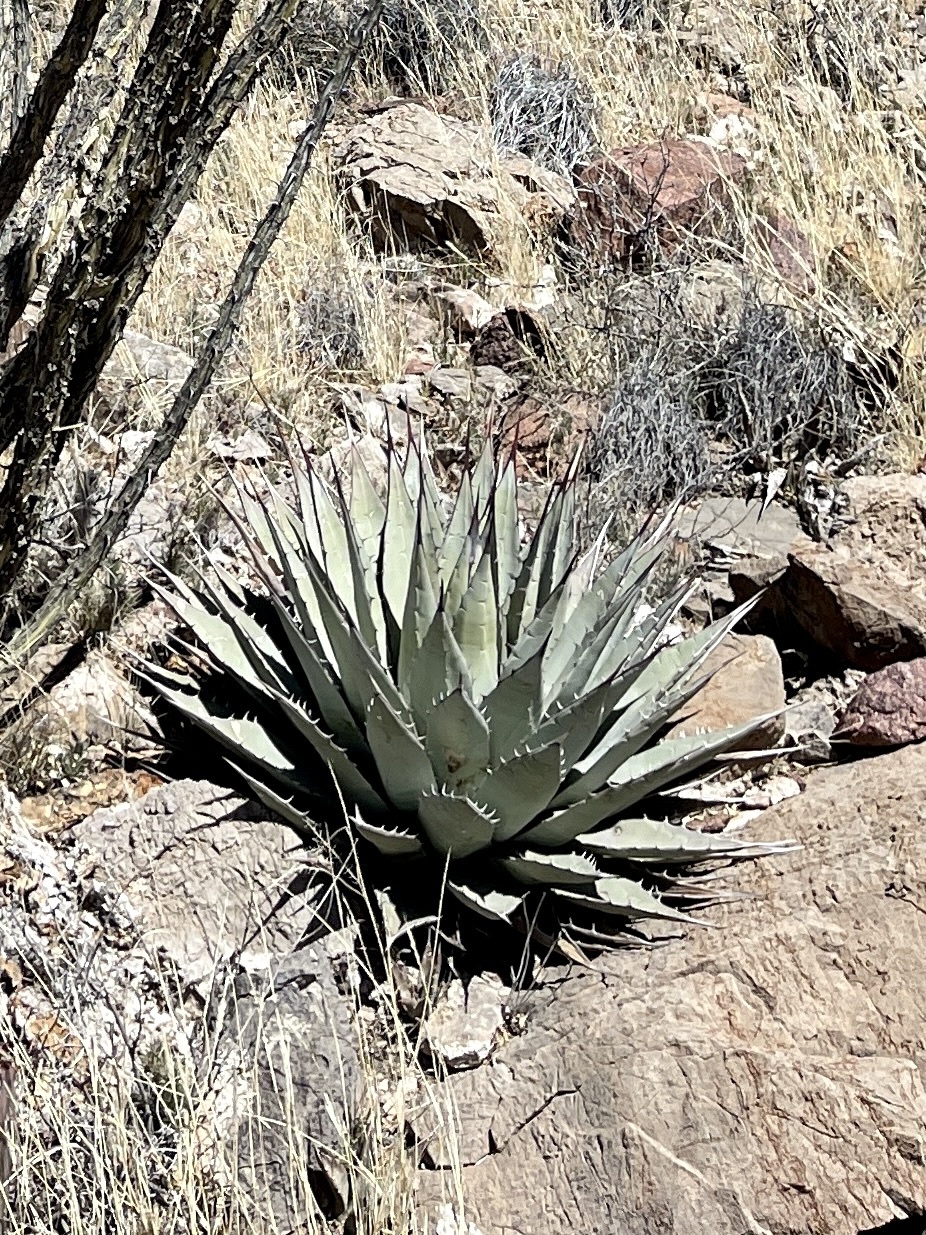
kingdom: Plantae
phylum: Tracheophyta
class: Liliopsida
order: Asparagales
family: Asparagaceae
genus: Agave
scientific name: Agave parryi
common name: Parry's agave
